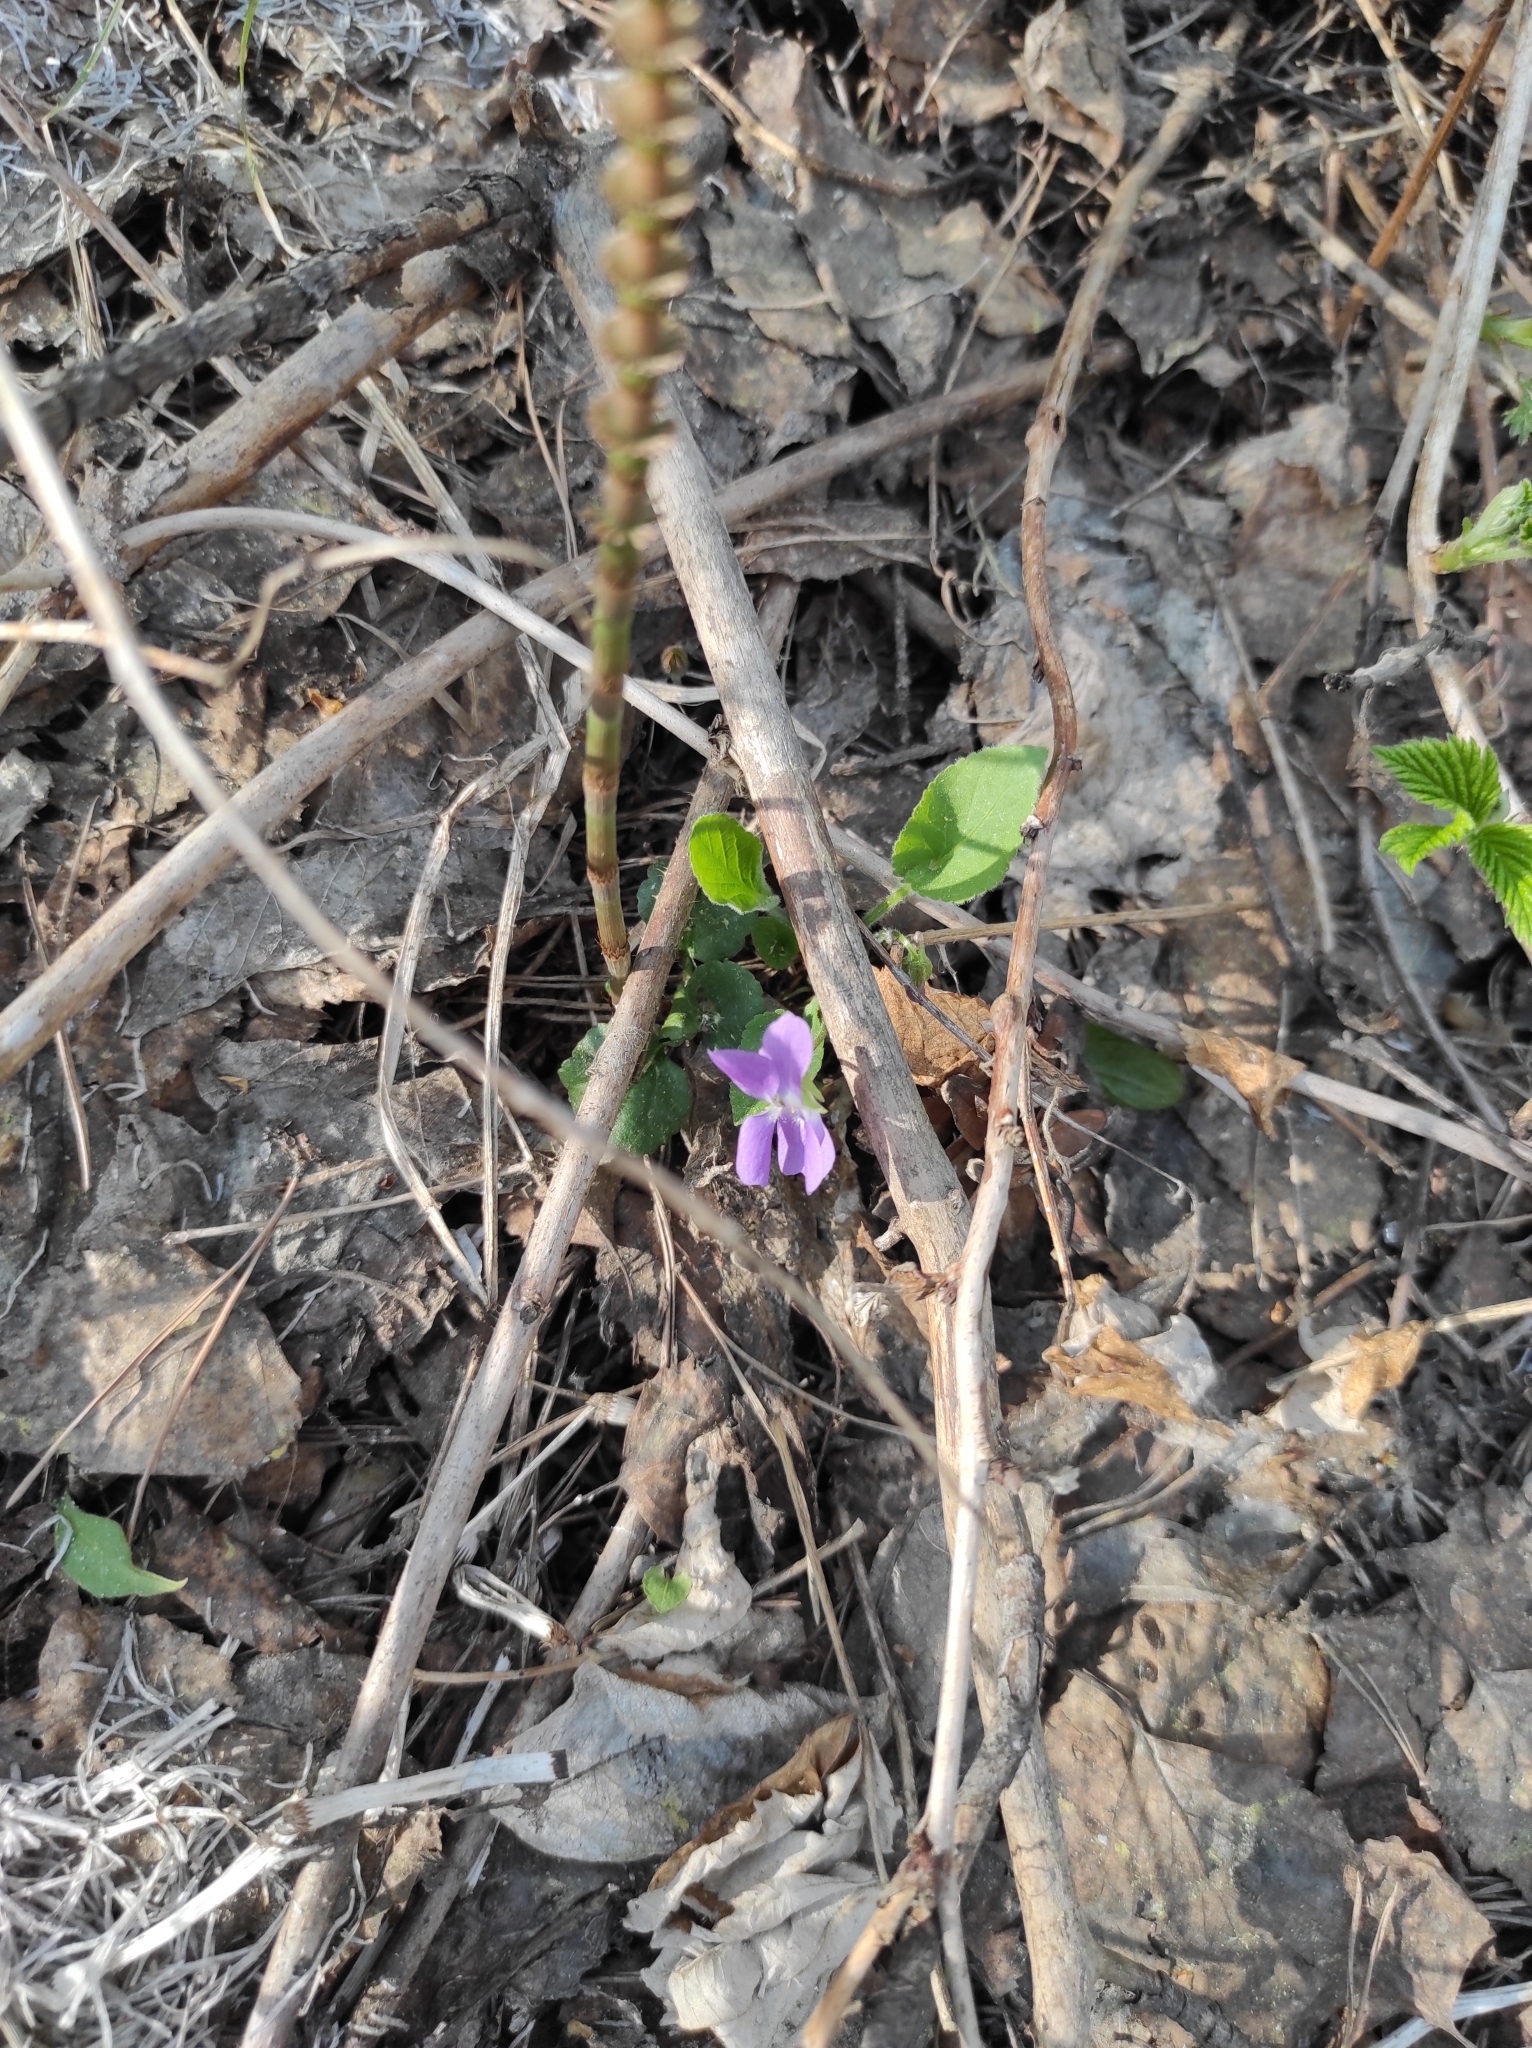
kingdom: Plantae
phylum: Tracheophyta
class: Magnoliopsida
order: Malpighiales
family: Violaceae
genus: Viola
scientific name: Viola hirta
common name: Hairy violet
